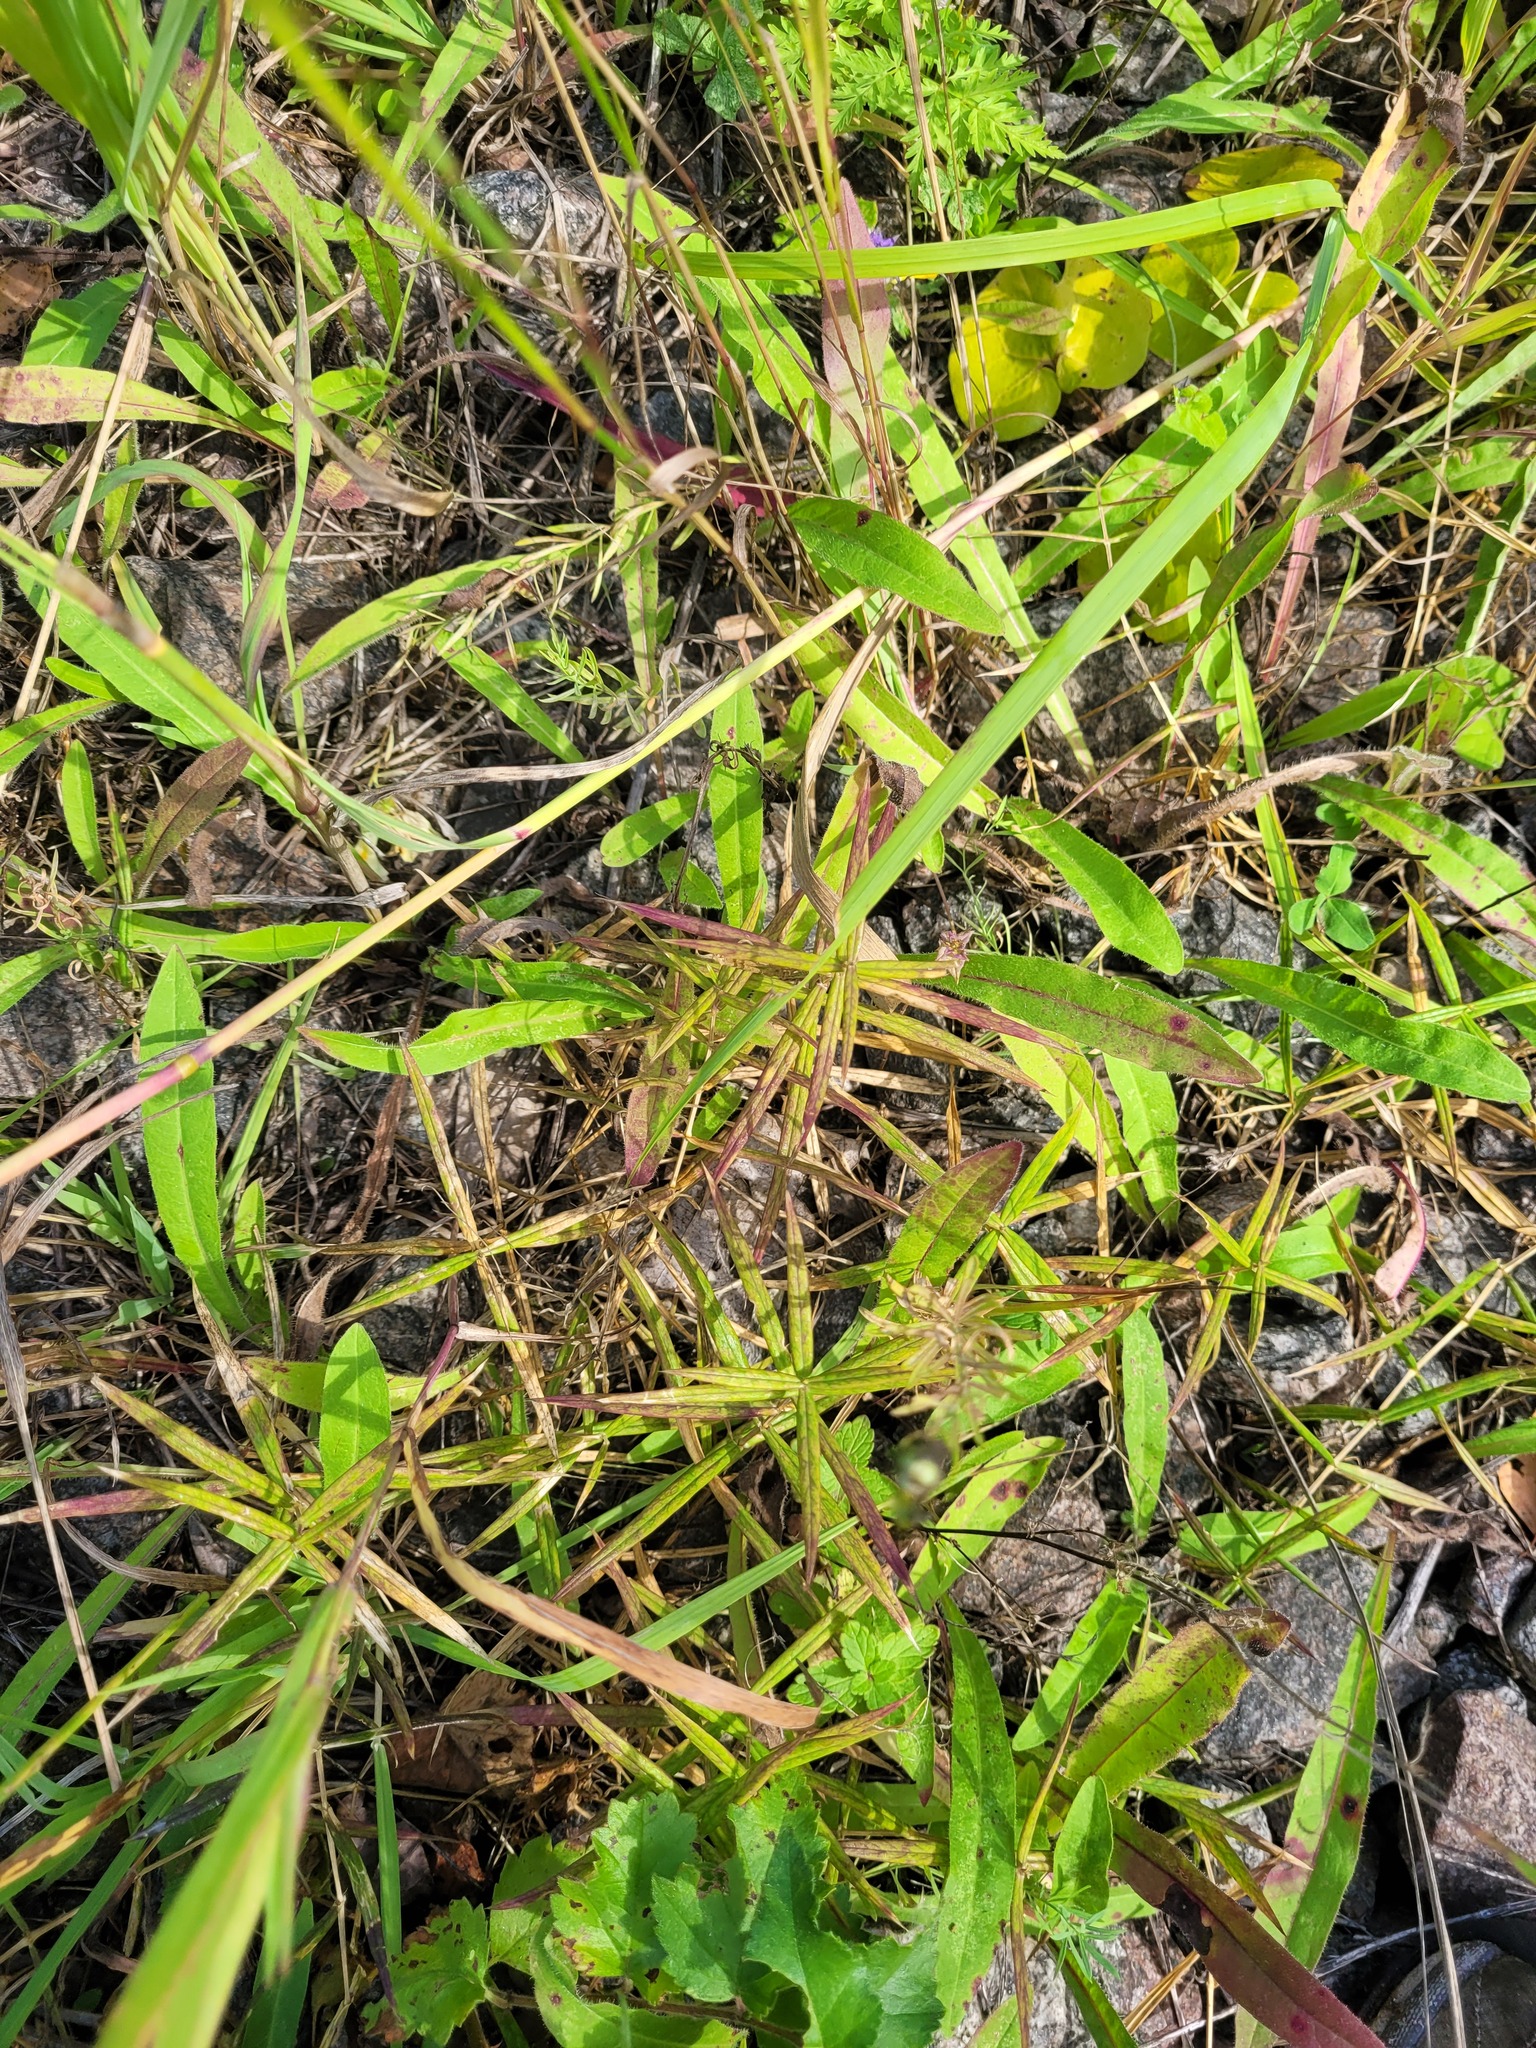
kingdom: Plantae
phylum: Tracheophyta
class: Magnoliopsida
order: Caryophyllales
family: Caryophyllaceae
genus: Rabelera
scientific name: Rabelera holostea
